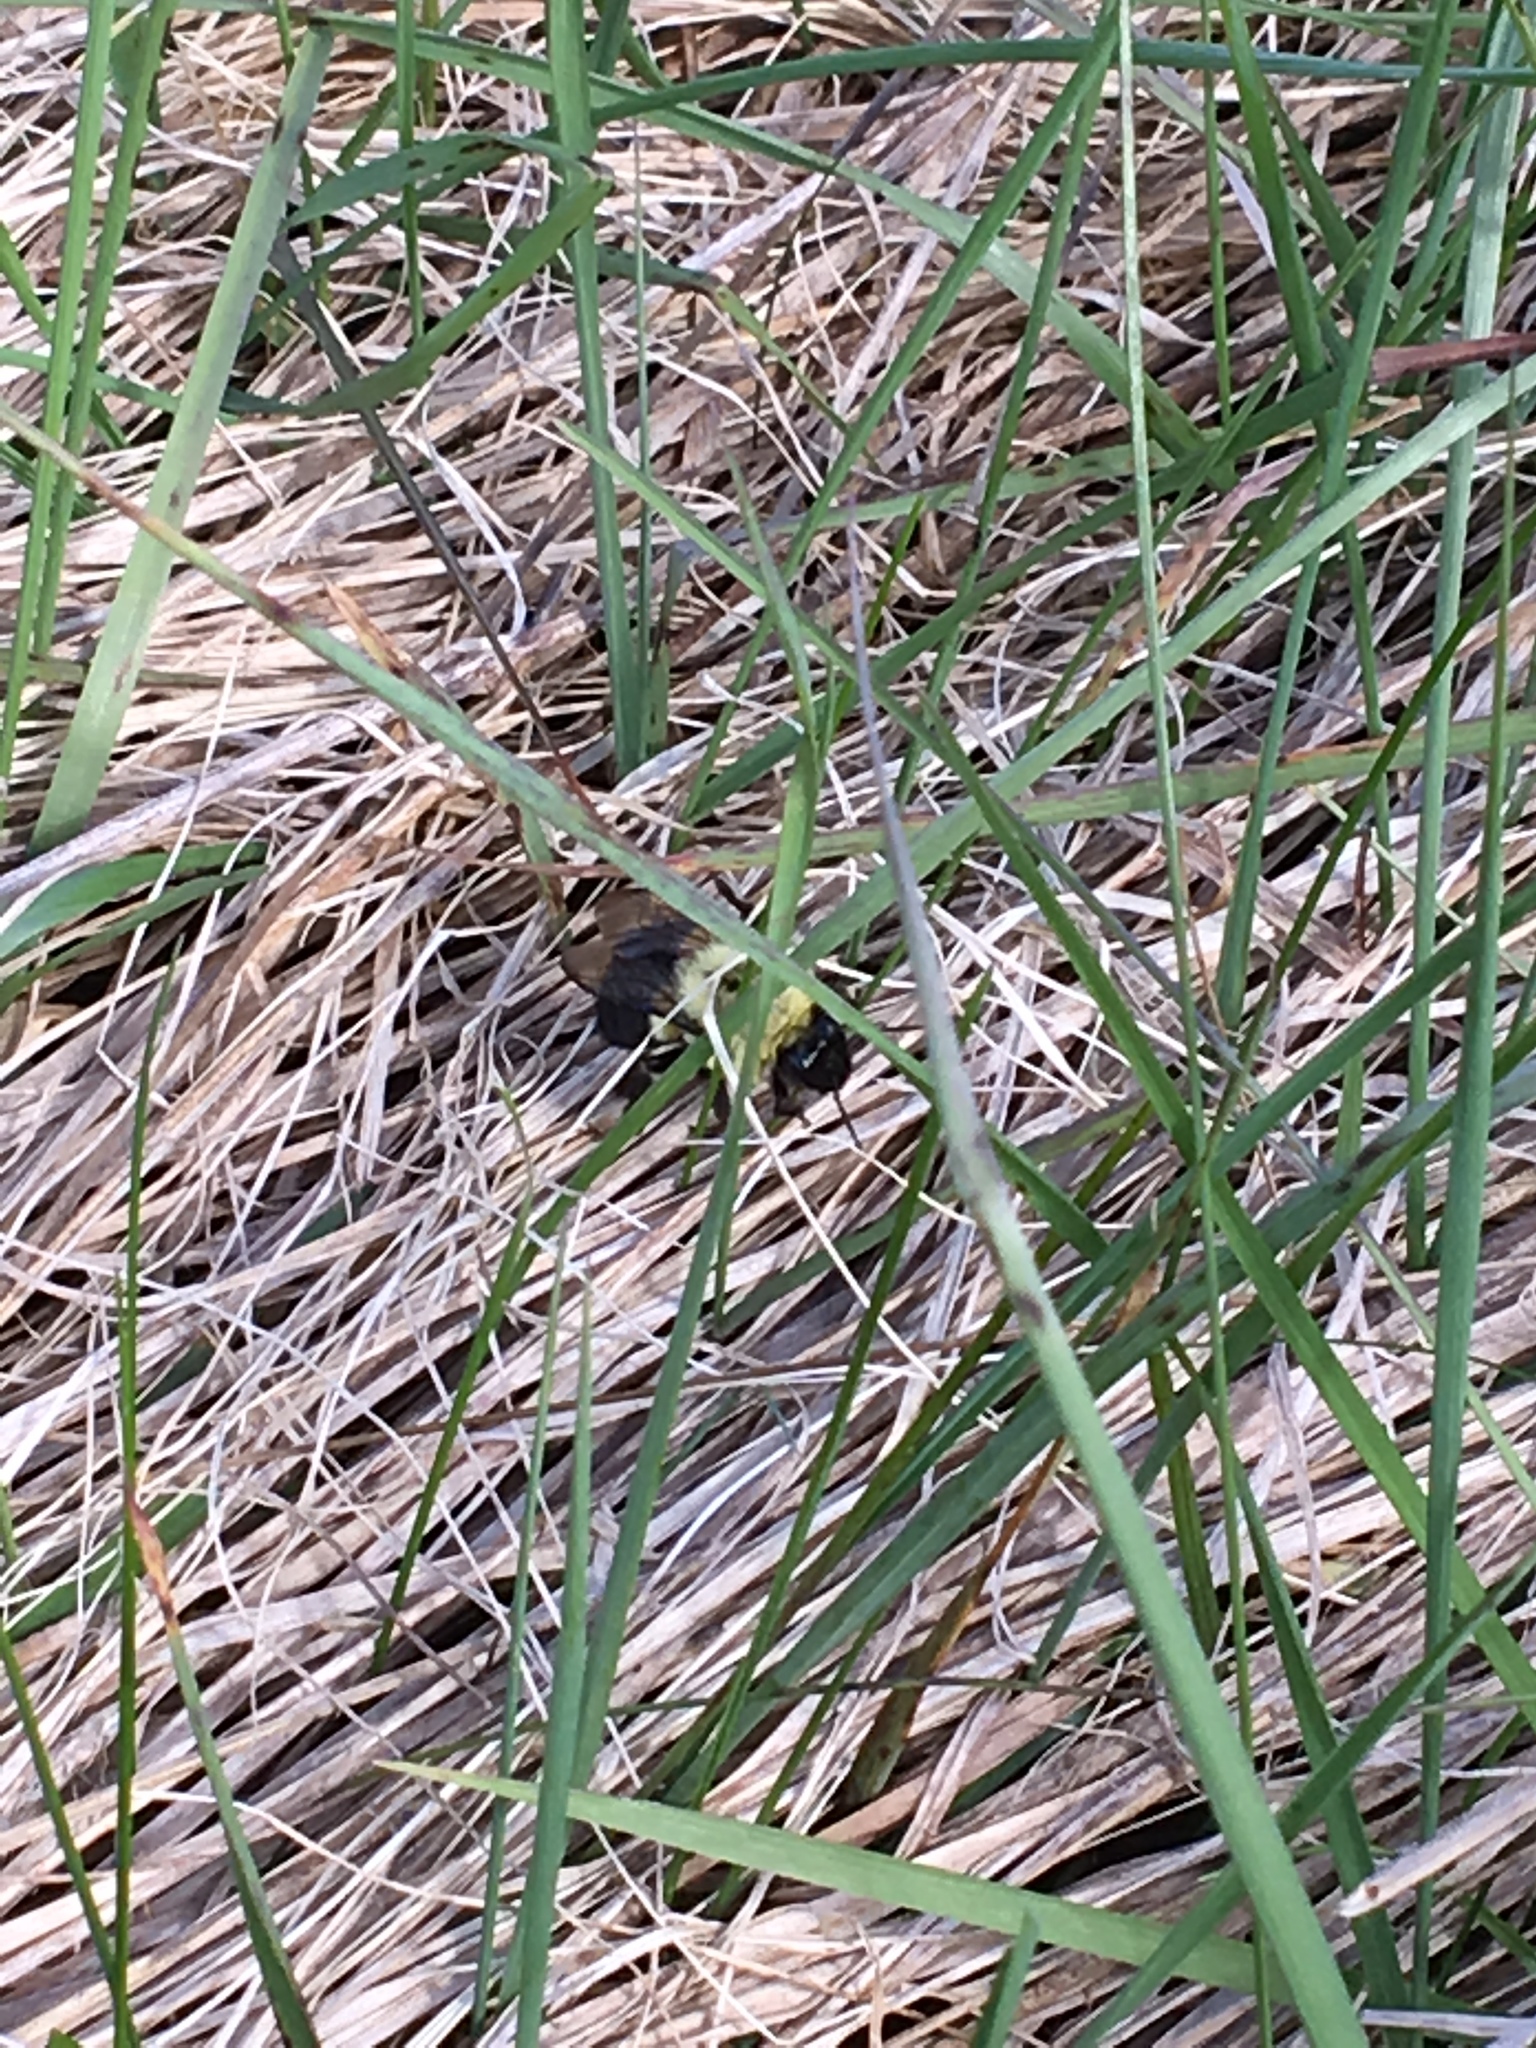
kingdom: Animalia
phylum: Arthropoda
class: Insecta
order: Hymenoptera
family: Apidae
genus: Bombus
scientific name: Bombus impatiens
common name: Common eastern bumble bee
